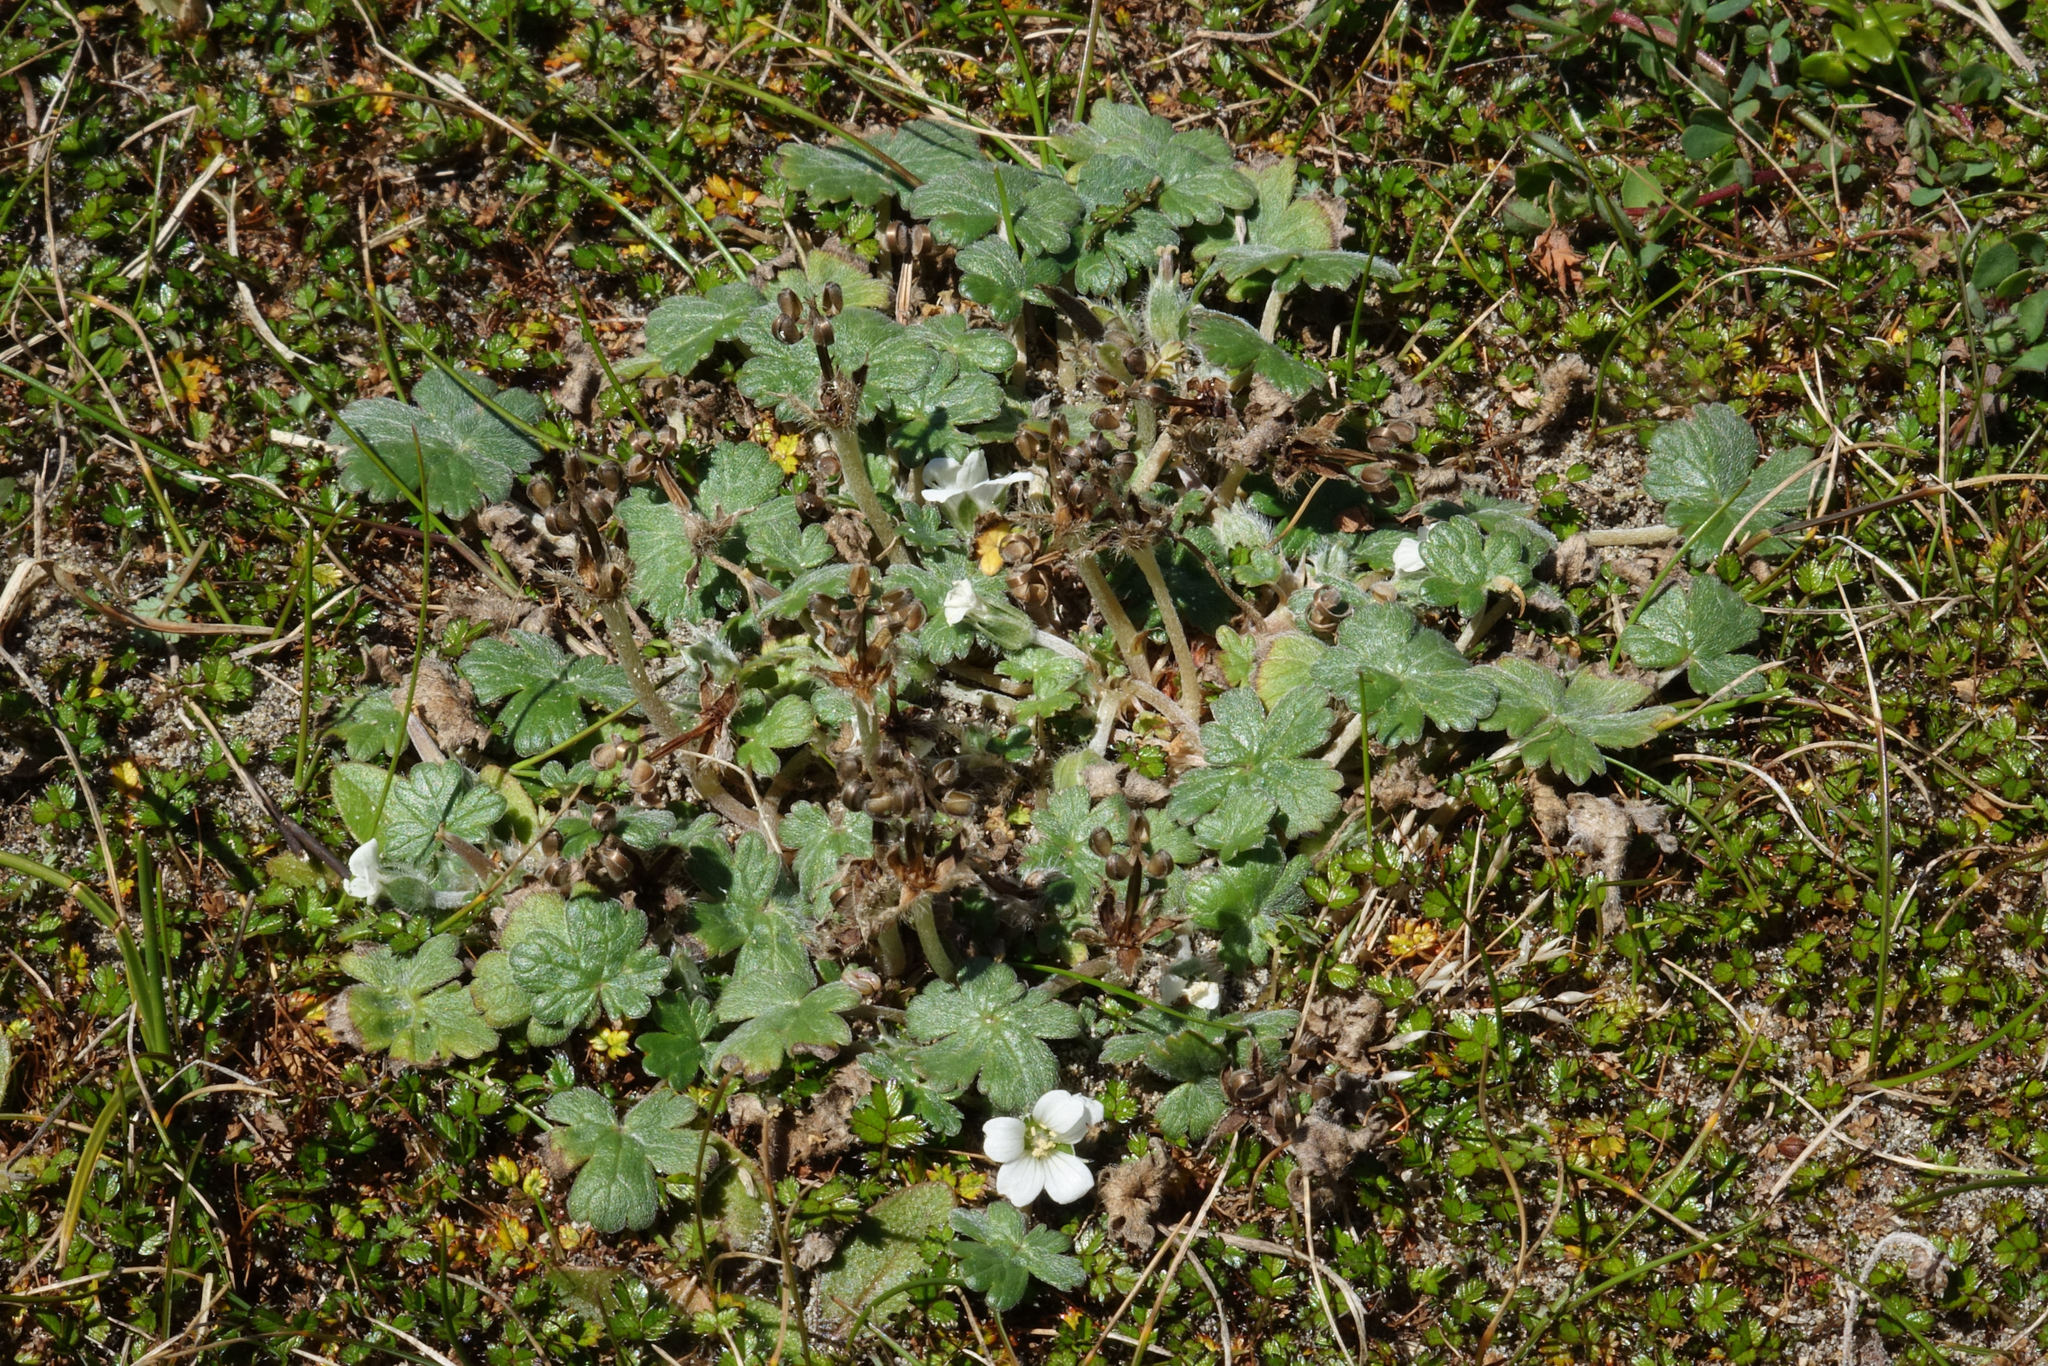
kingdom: Plantae
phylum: Tracheophyta
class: Magnoliopsida
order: Geraniales
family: Geraniaceae
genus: Geranium
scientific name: Geranium brevicaule
